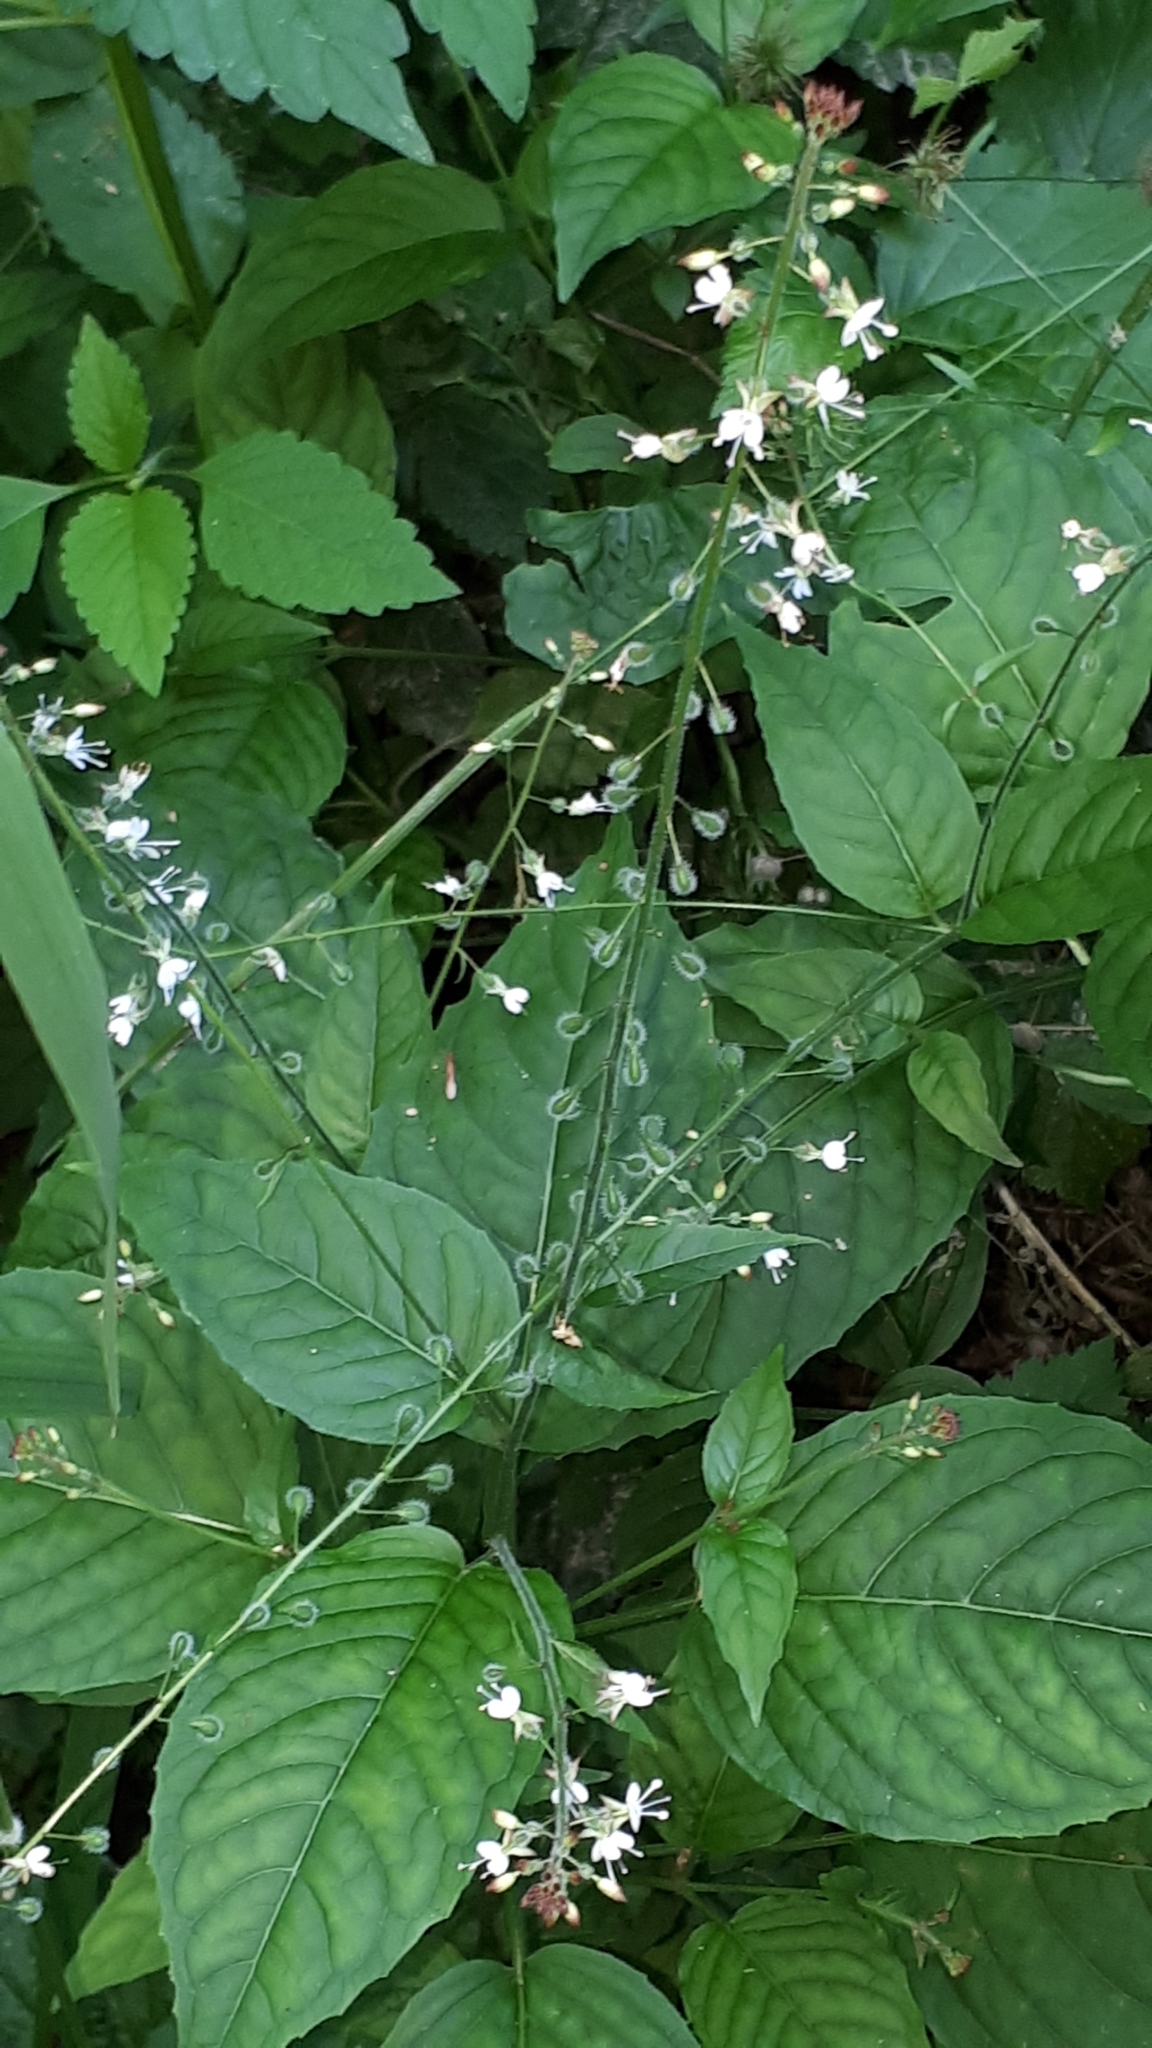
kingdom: Plantae
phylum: Tracheophyta
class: Magnoliopsida
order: Myrtales
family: Onagraceae
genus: Circaea
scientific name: Circaea lutetiana
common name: Enchanter's-nightshade
